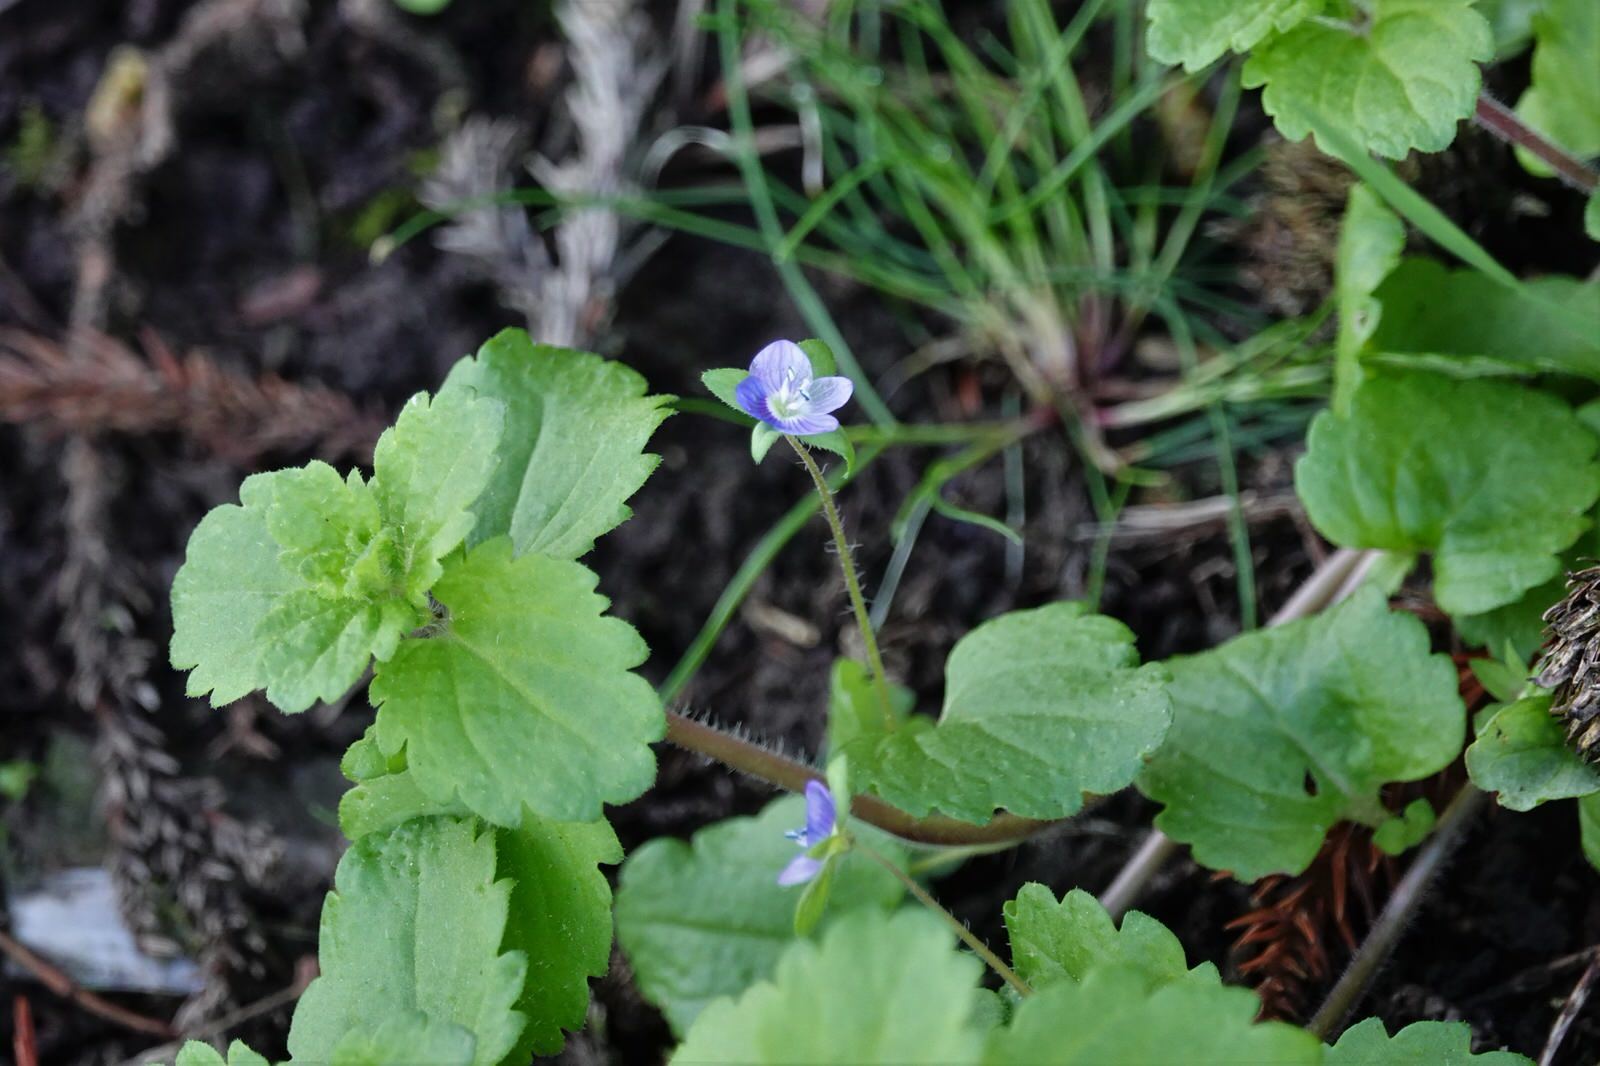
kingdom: Plantae
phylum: Tracheophyta
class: Magnoliopsida
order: Lamiales
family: Plantaginaceae
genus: Veronica
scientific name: Veronica persica
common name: Common field-speedwell
